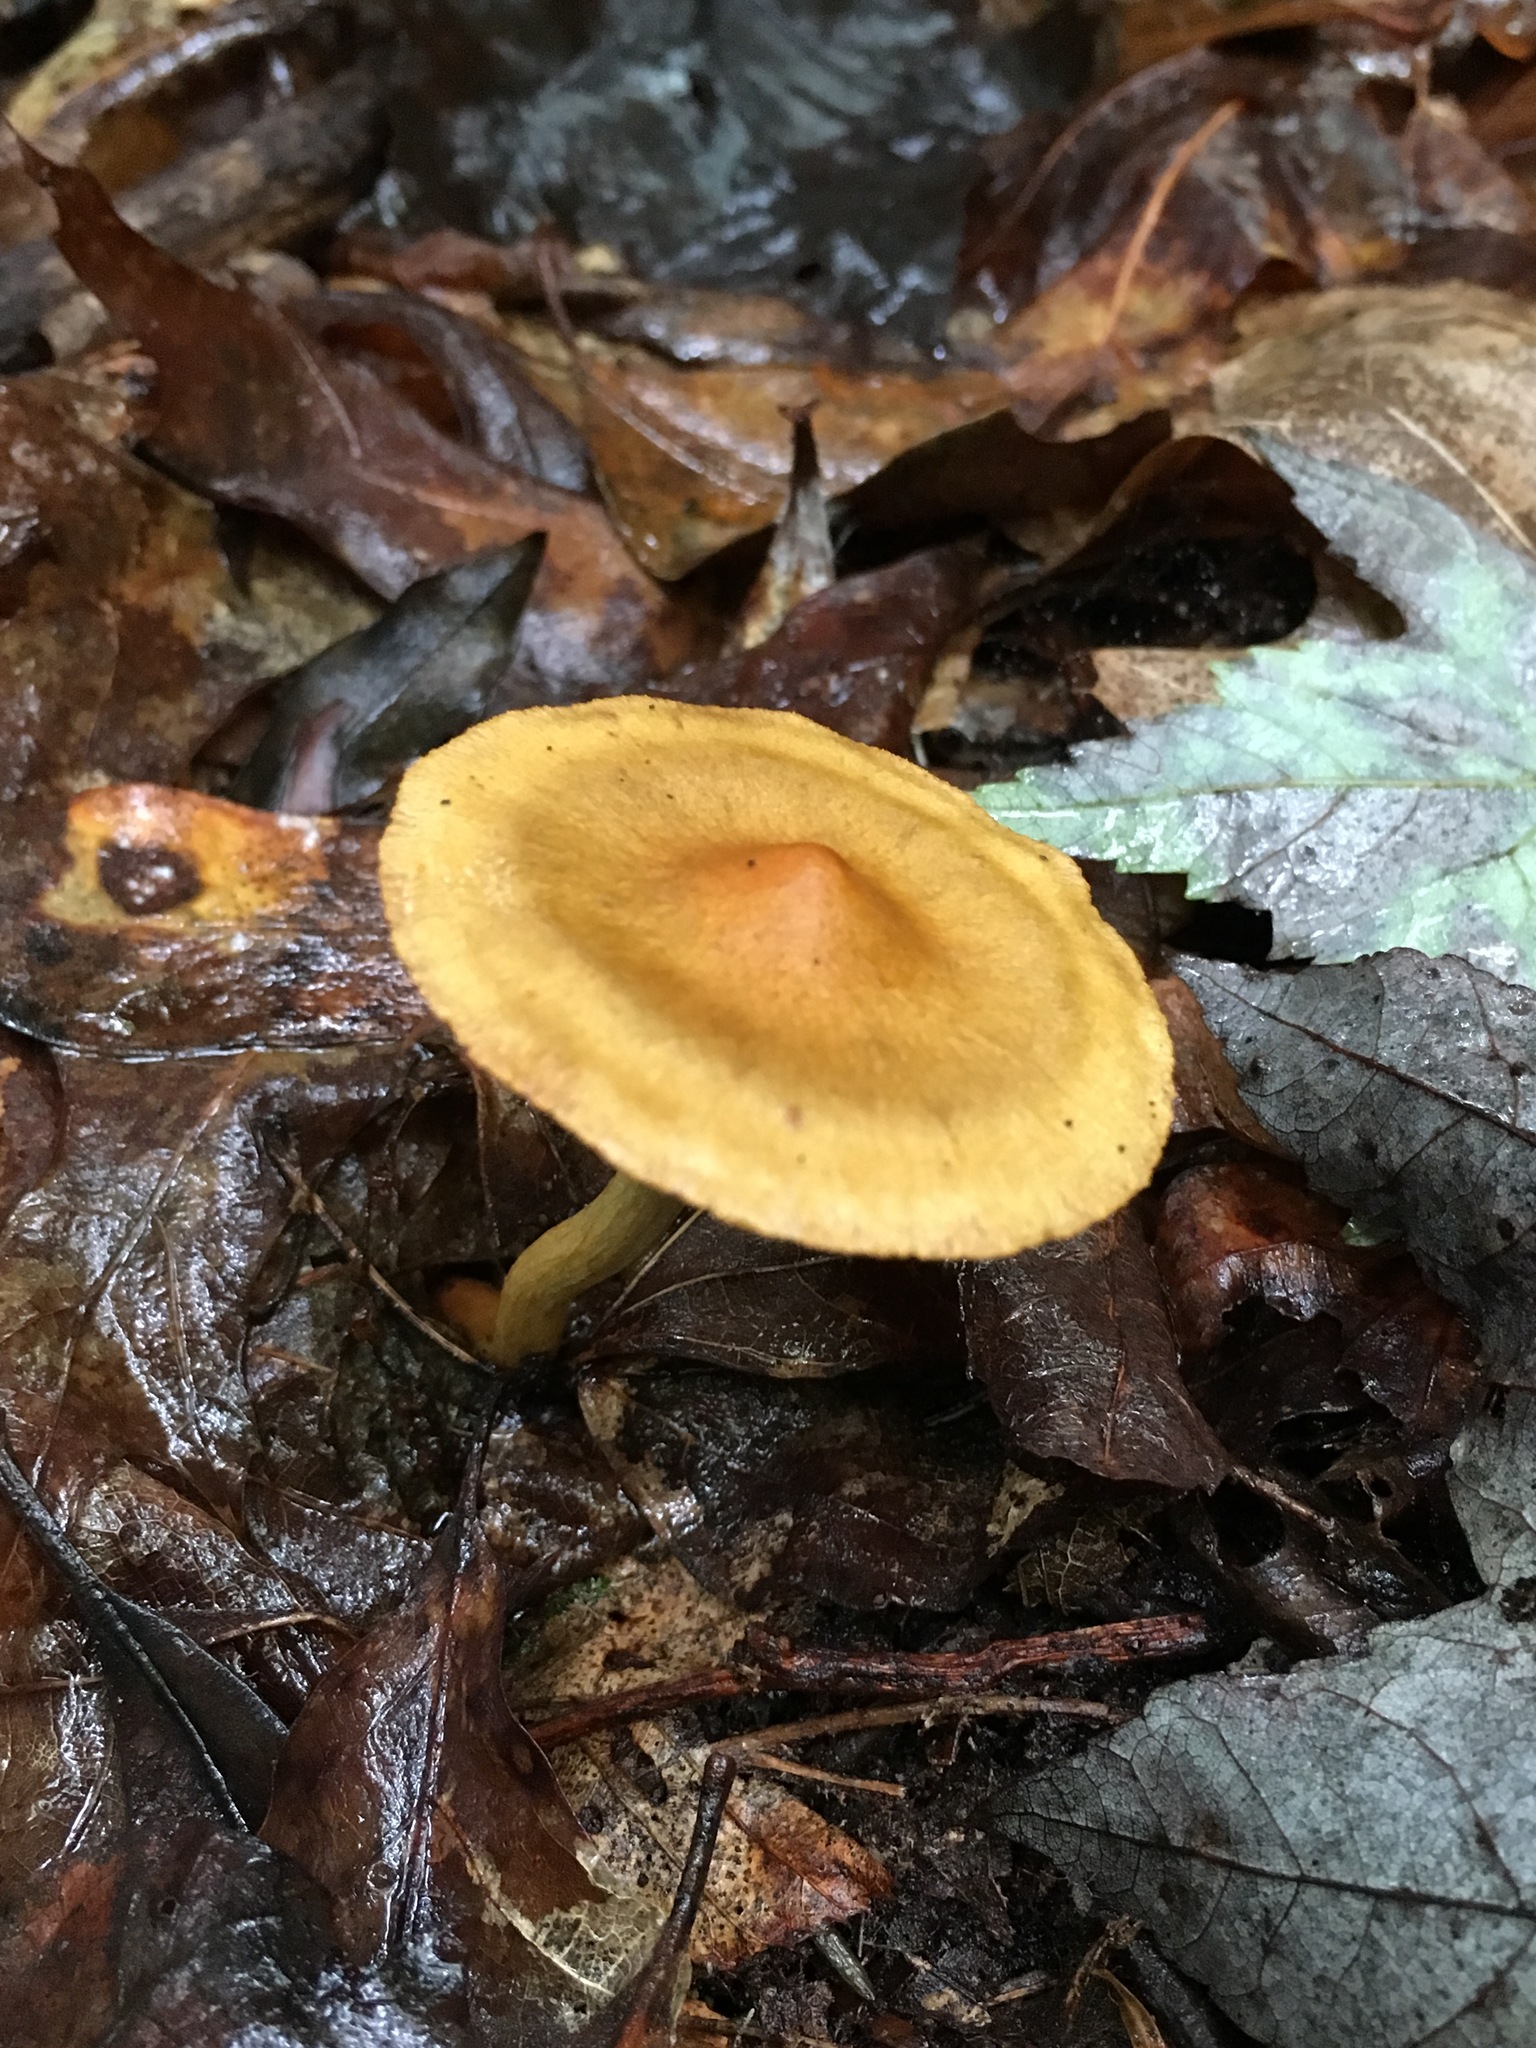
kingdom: Fungi
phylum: Basidiomycota
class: Agaricomycetes
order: Agaricales
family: Cortinariaceae
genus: Cortinarius
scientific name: Cortinarius semisanguineus
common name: Surprise webcap
